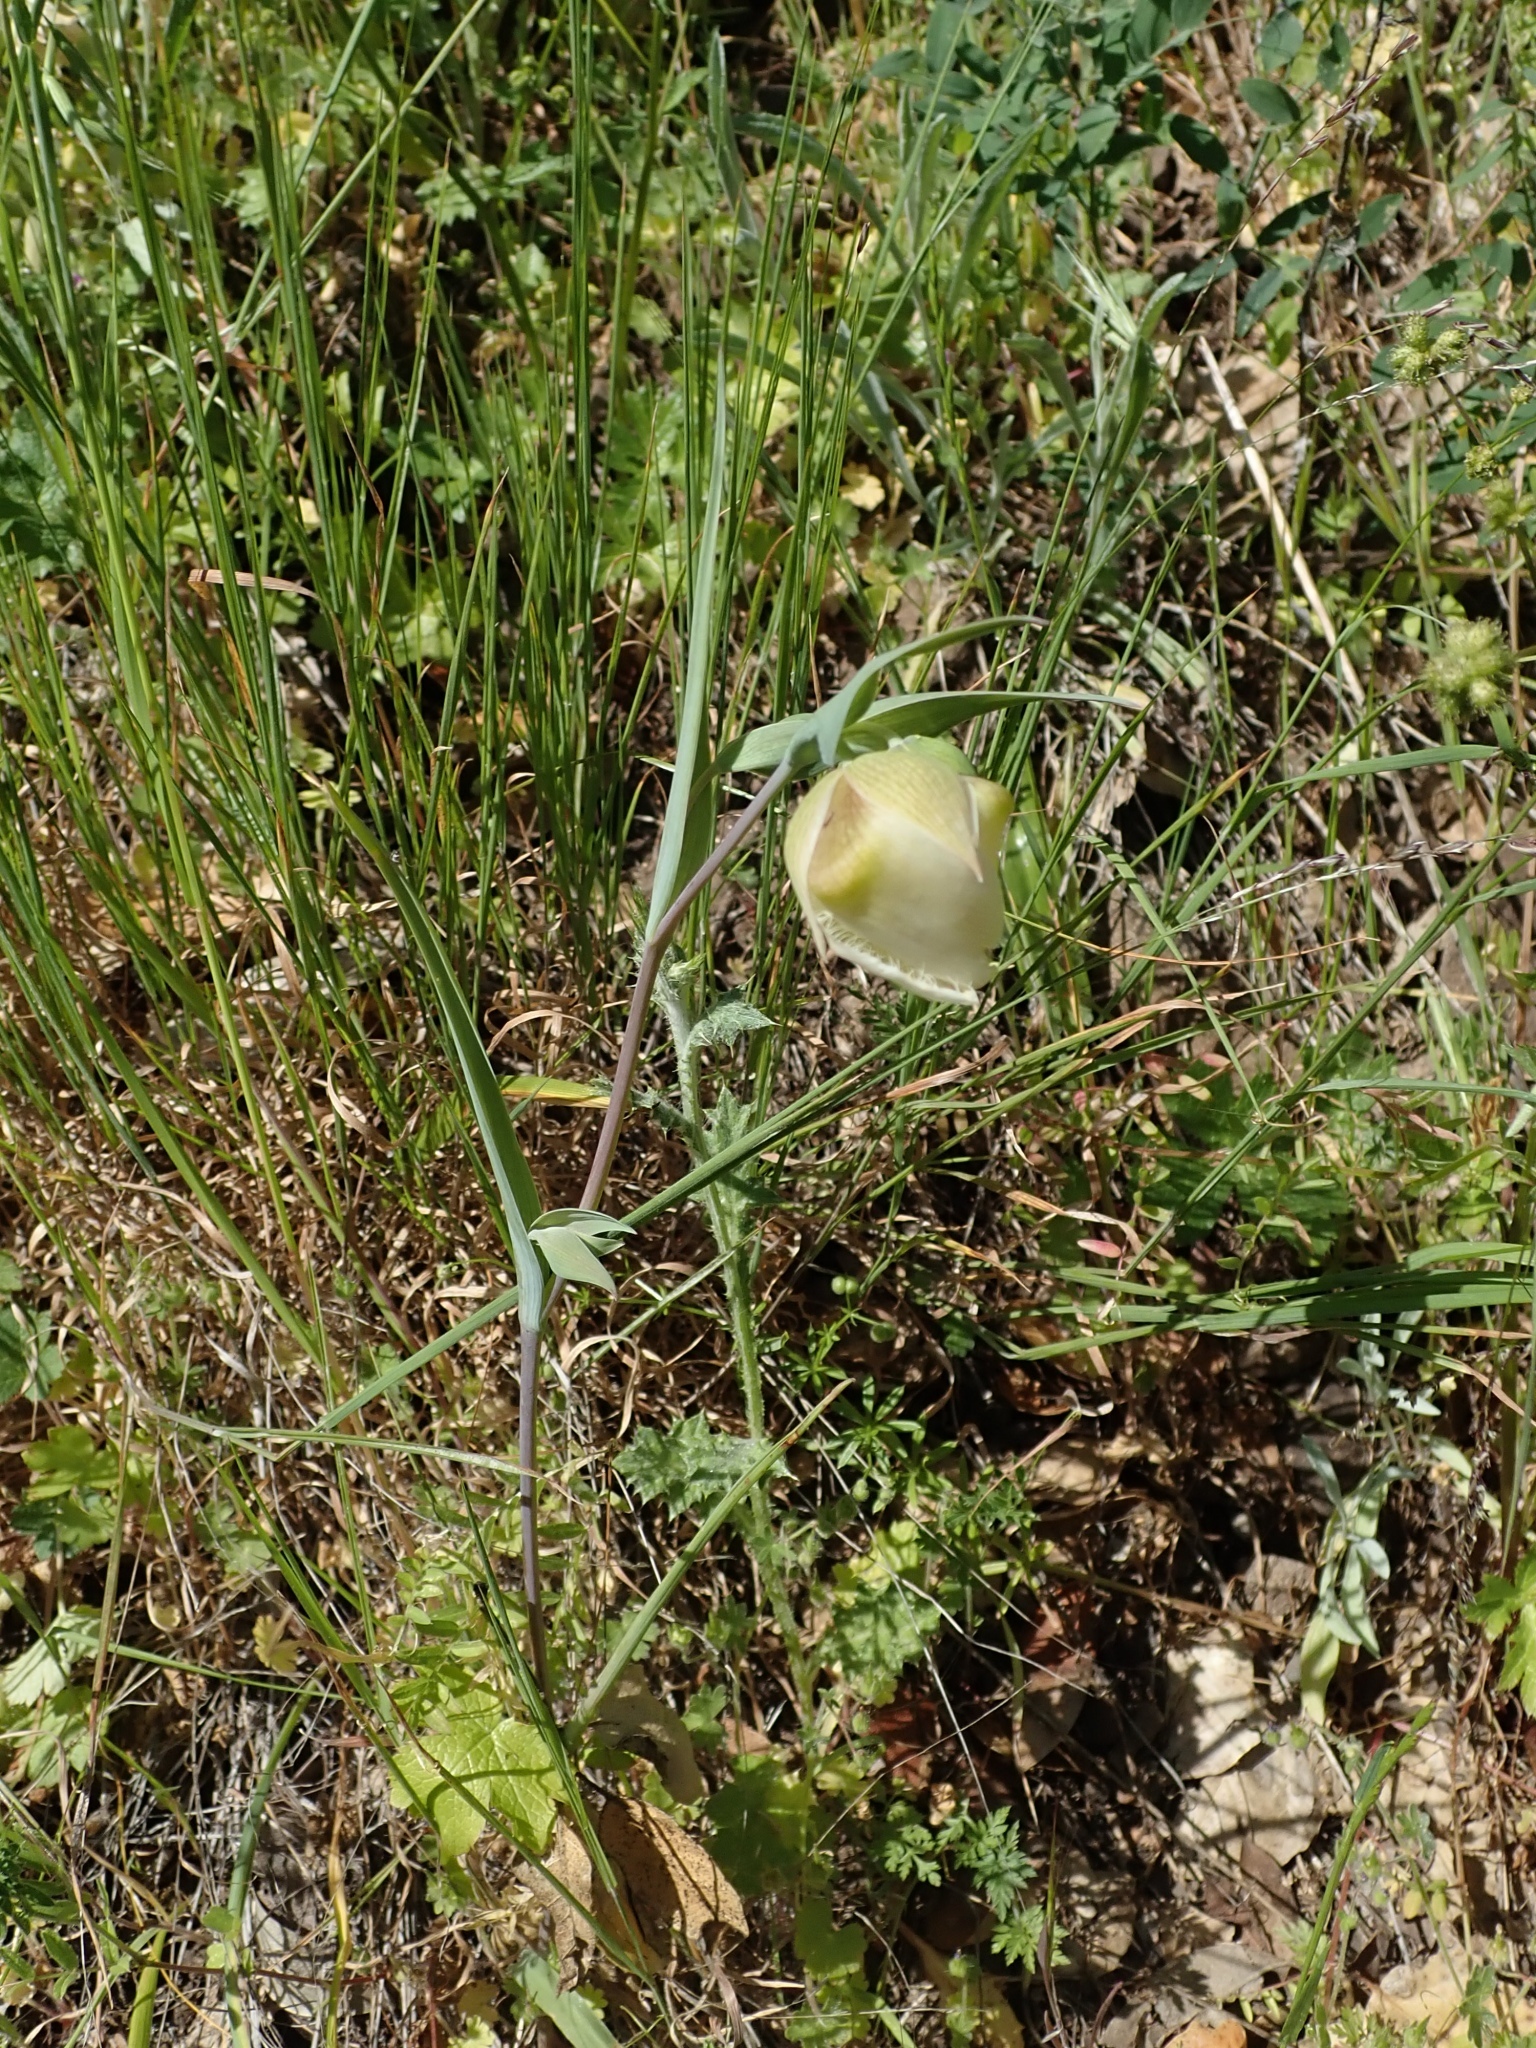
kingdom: Plantae
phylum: Tracheophyta
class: Liliopsida
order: Liliales
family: Liliaceae
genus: Calochortus
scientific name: Calochortus albus
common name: Fairy-lantern
